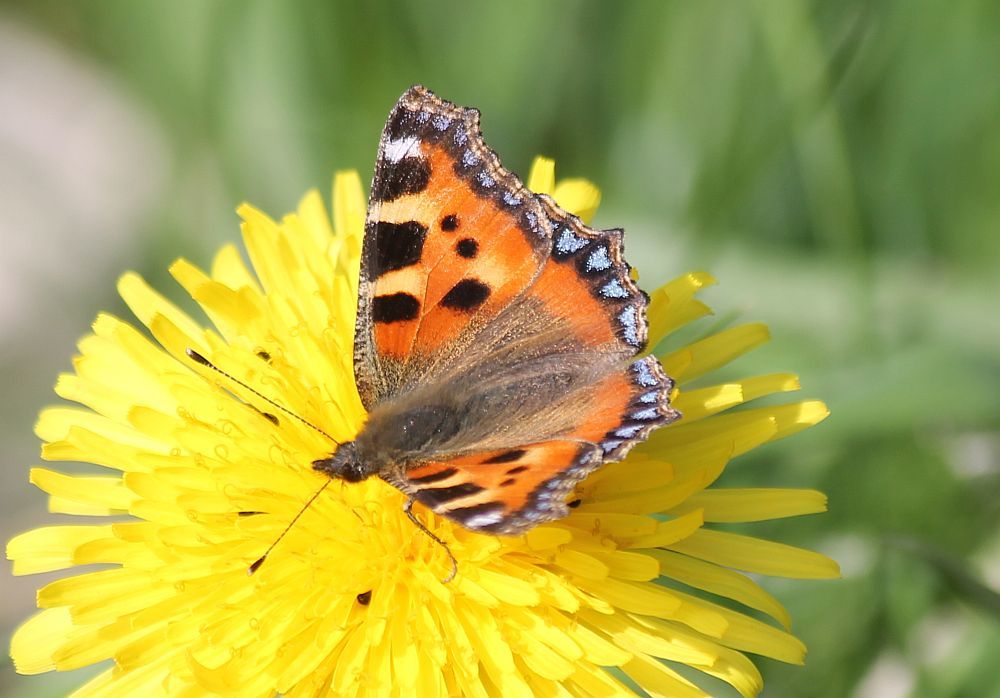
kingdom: Animalia
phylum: Arthropoda
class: Insecta
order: Lepidoptera
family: Nymphalidae
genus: Aglais
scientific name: Aglais urticae
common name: Small tortoiseshell
